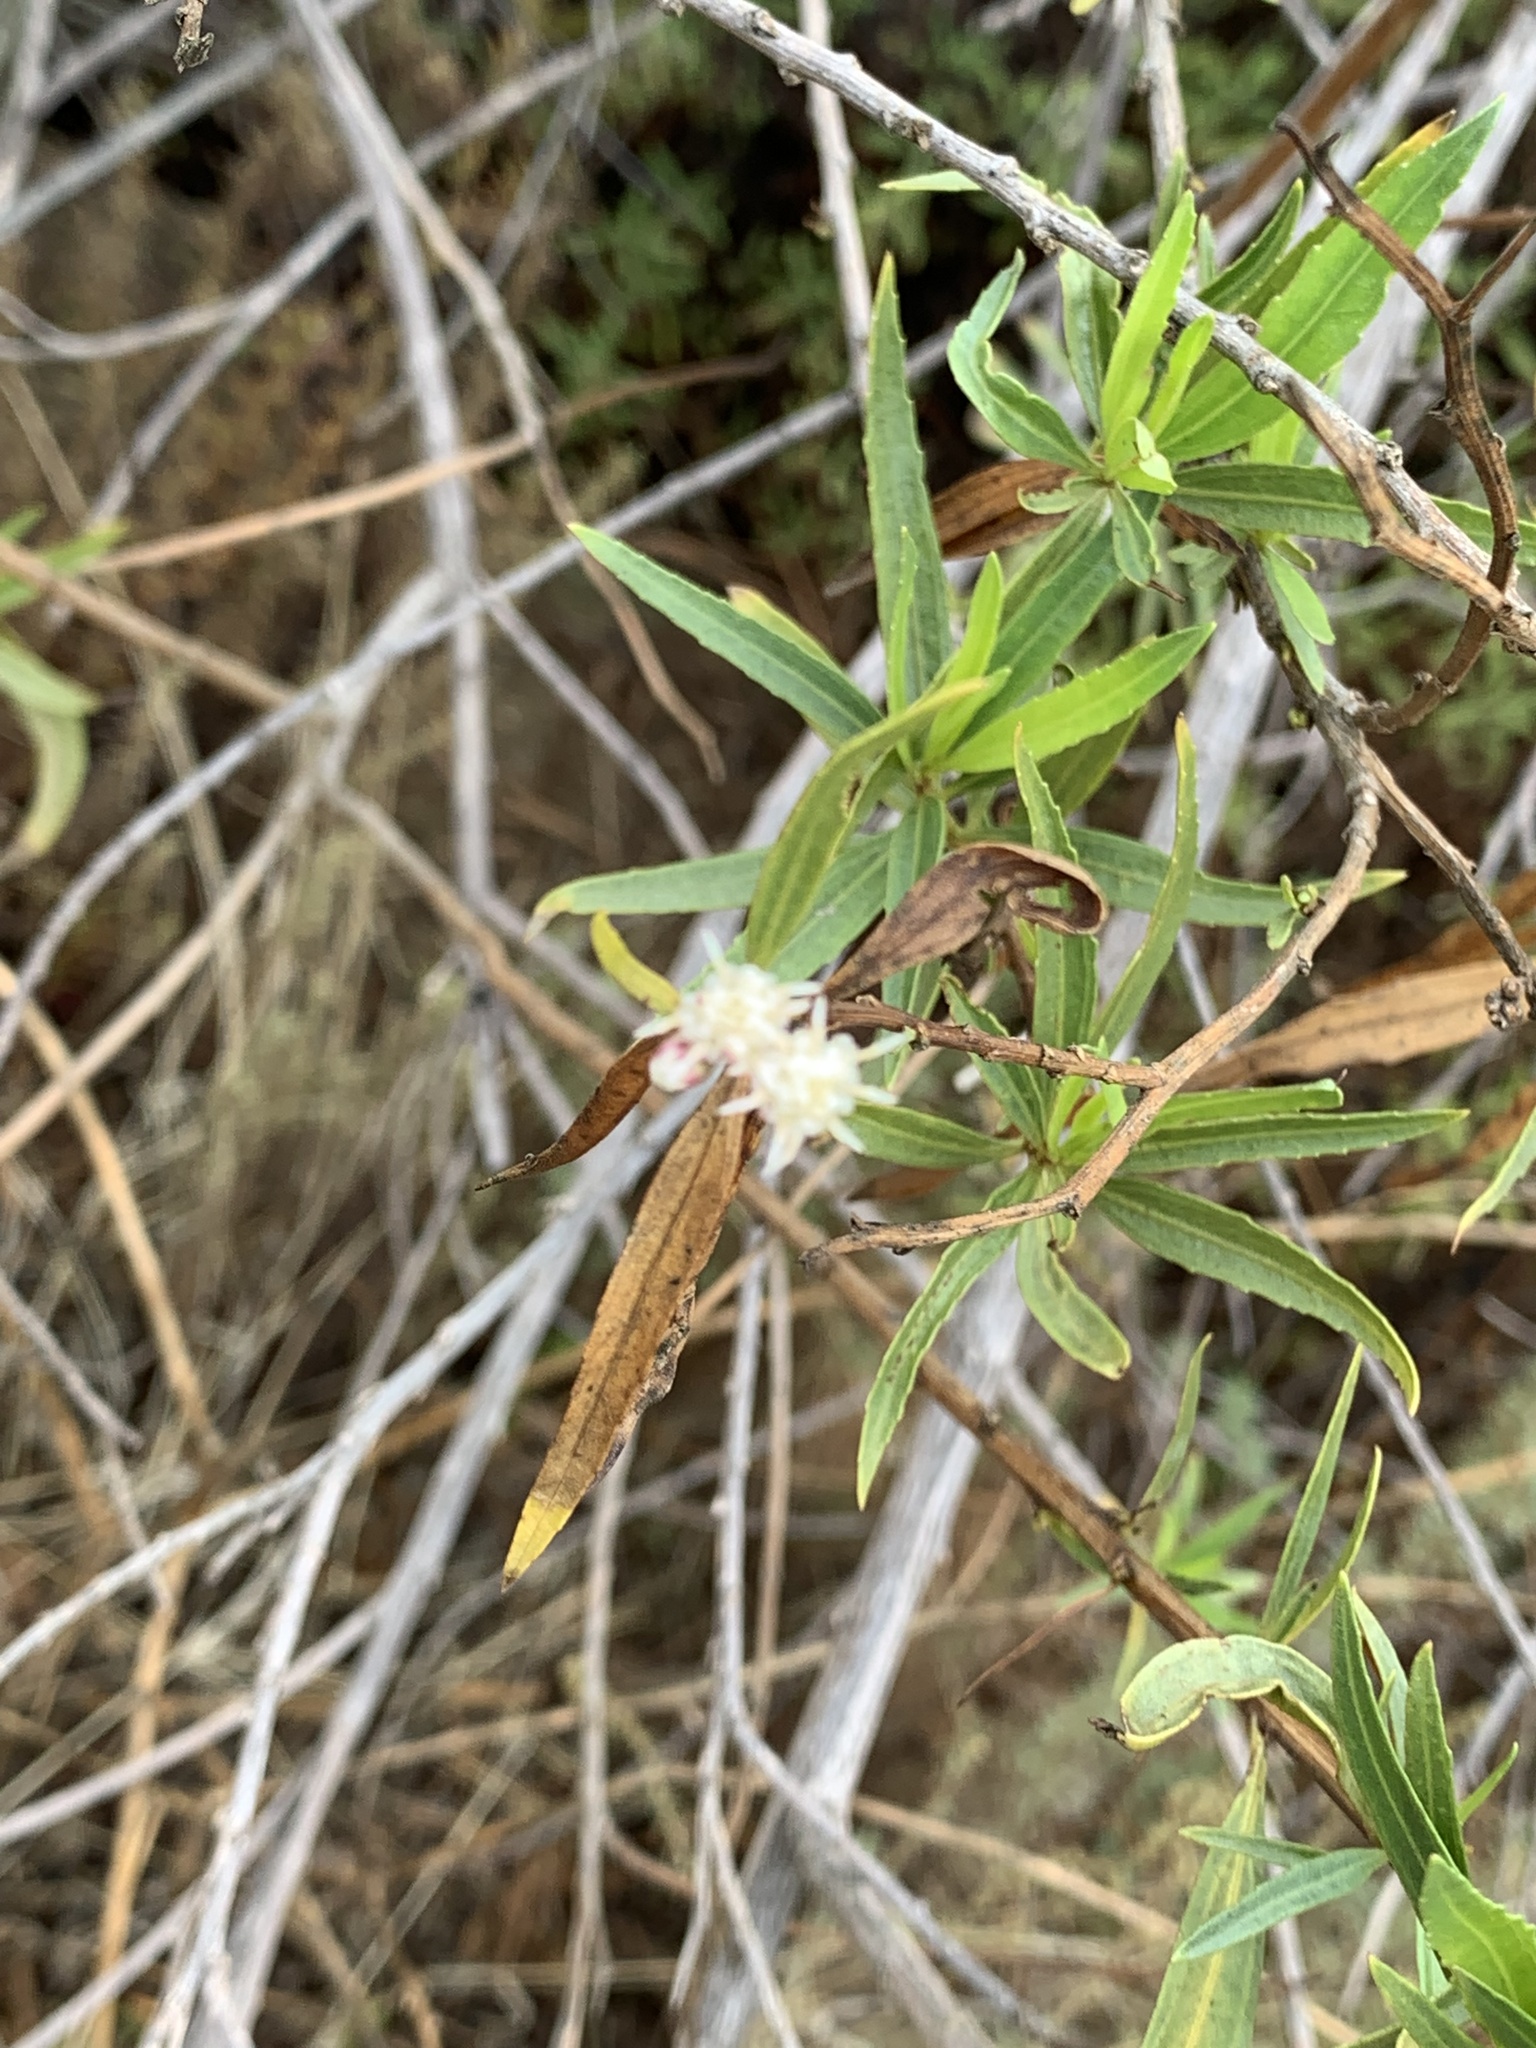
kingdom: Plantae
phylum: Tracheophyta
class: Magnoliopsida
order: Asterales
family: Asteraceae
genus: Baccharis
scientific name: Baccharis salicifolia
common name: Sticky baccharis
